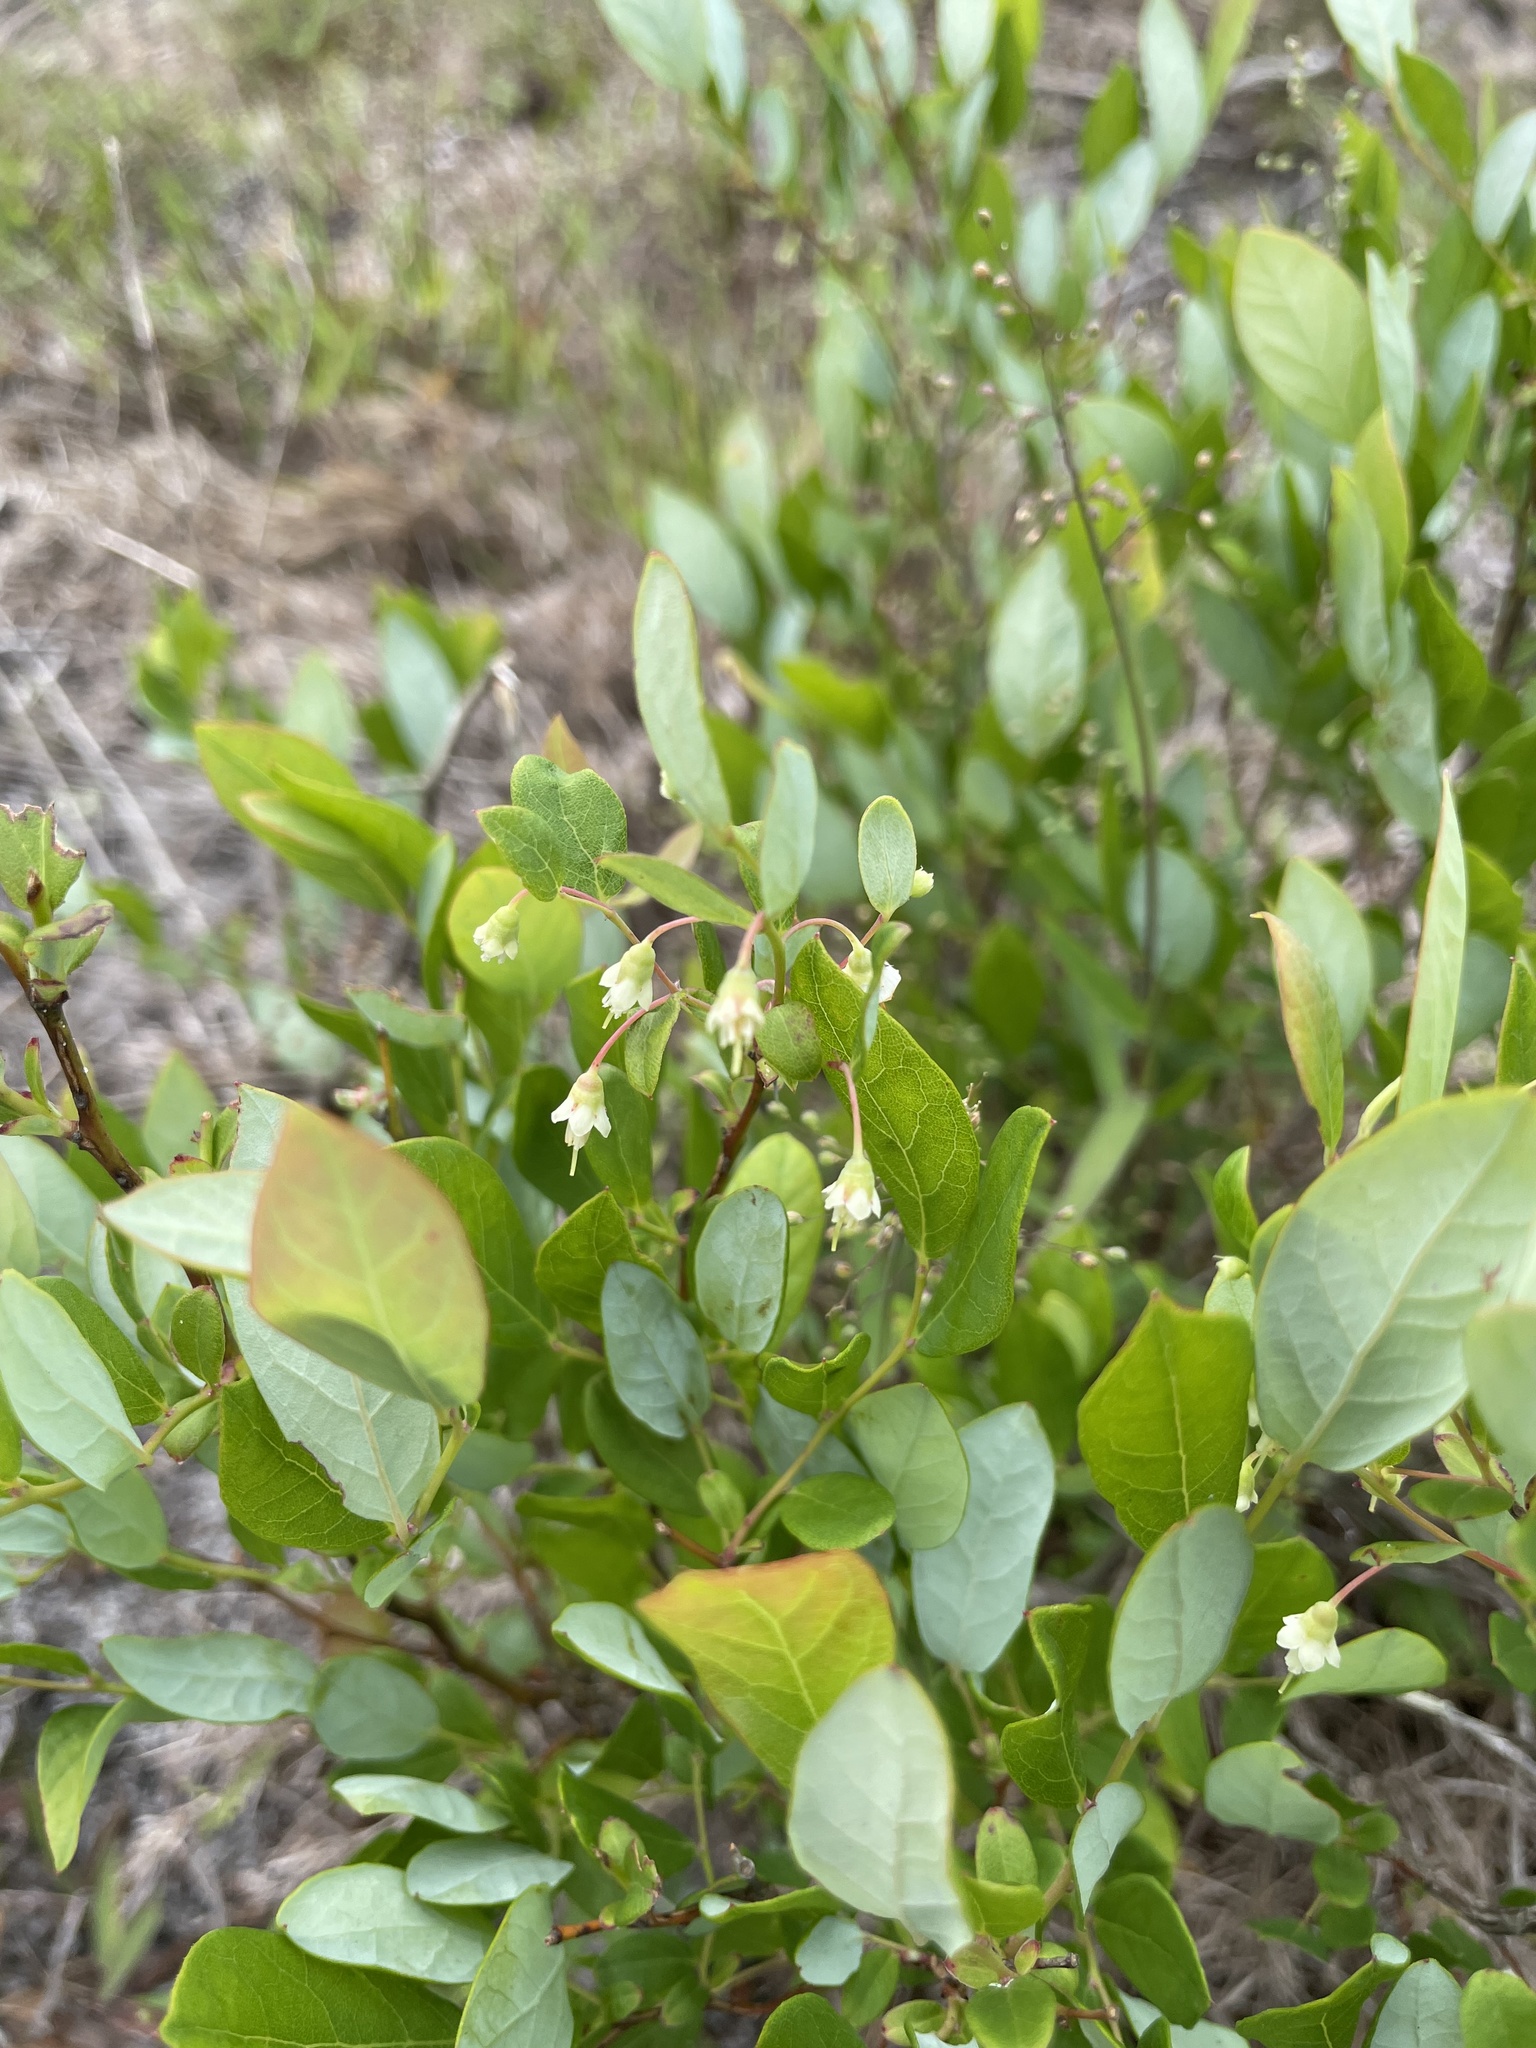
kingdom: Plantae
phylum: Tracheophyta
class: Magnoliopsida
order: Ericales
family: Ericaceae
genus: Vaccinium
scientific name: Vaccinium stamineum
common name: Deerberry
